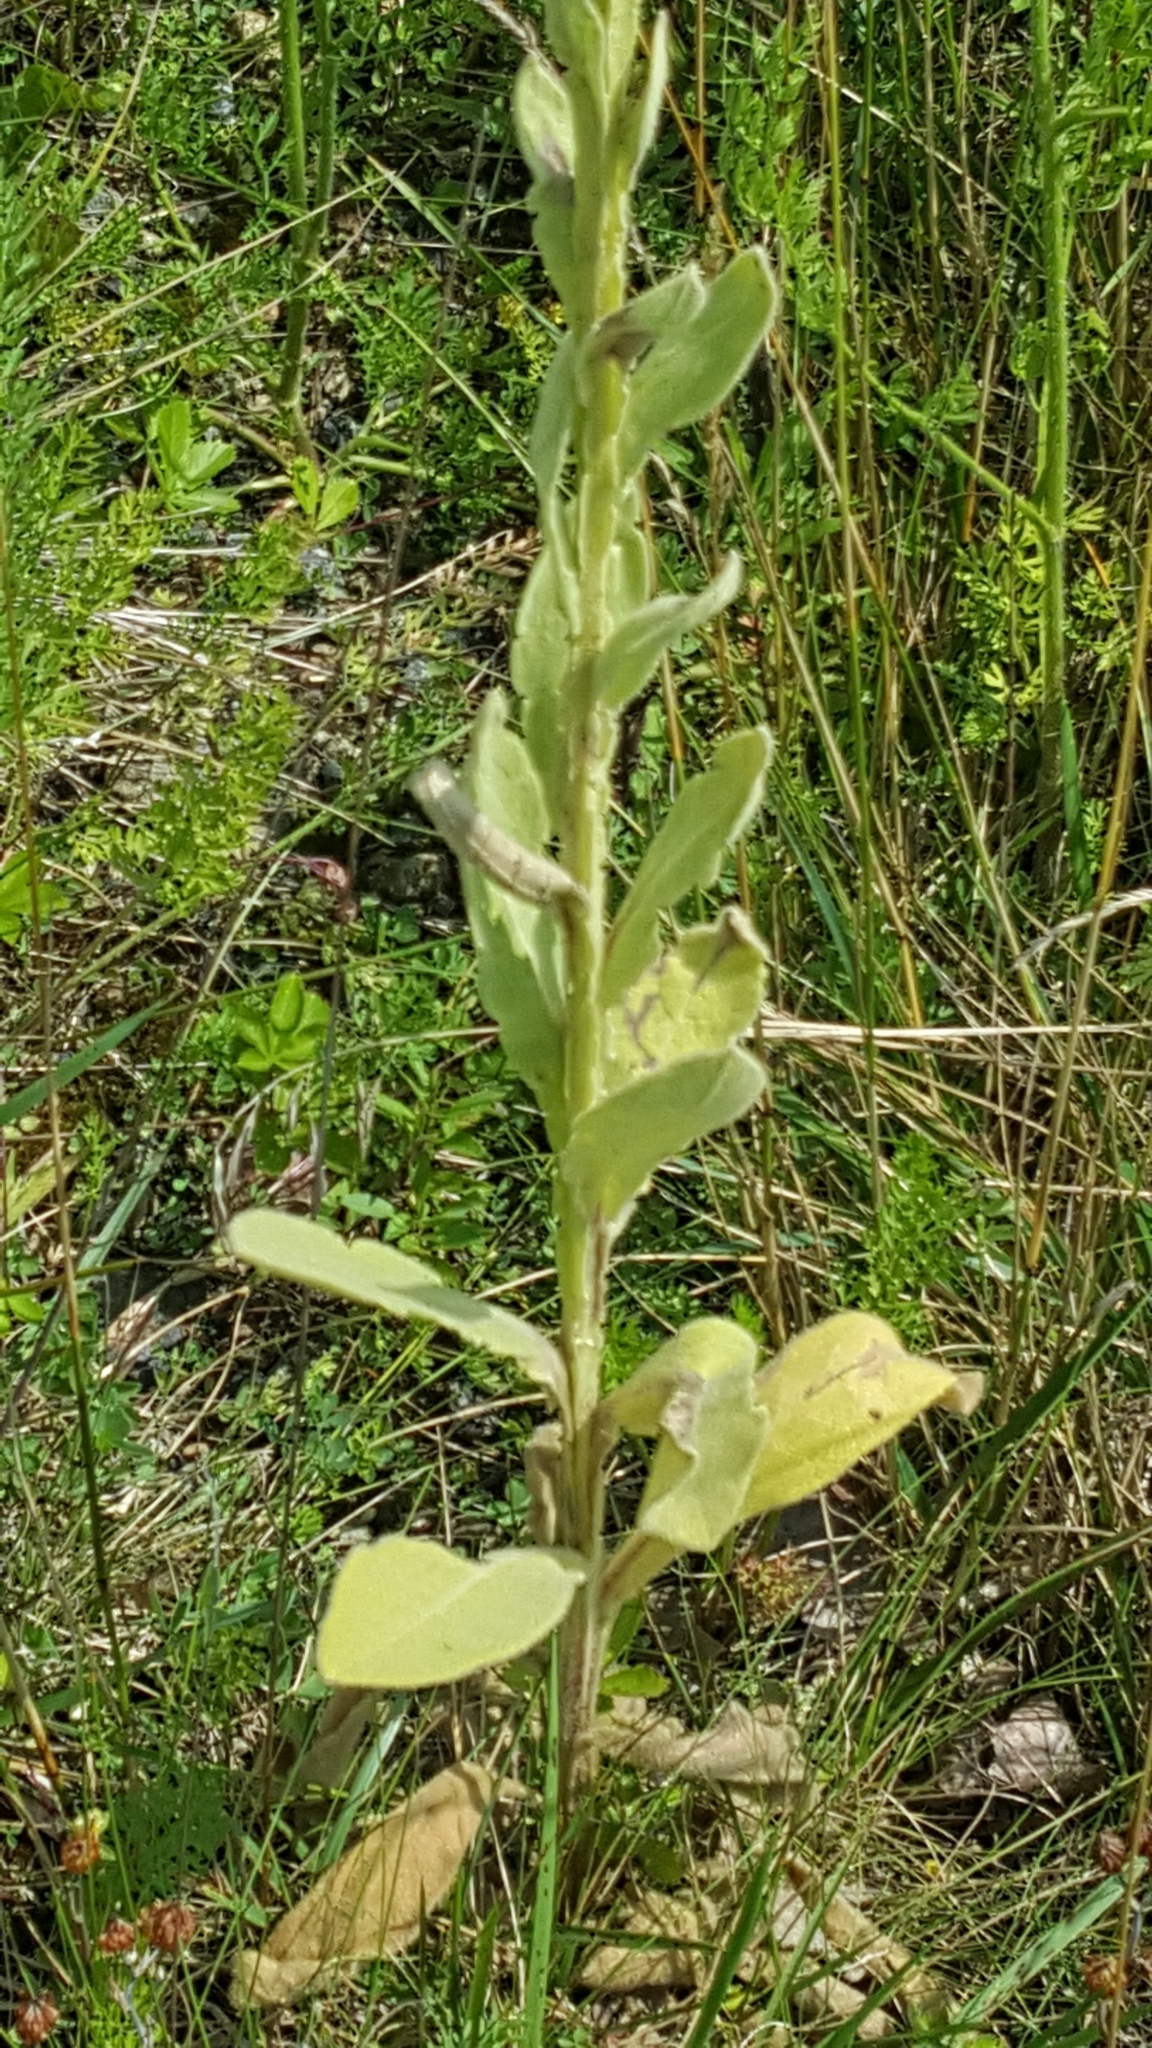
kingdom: Plantae
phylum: Tracheophyta
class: Magnoliopsida
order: Lamiales
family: Scrophulariaceae
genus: Verbascum
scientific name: Verbascum thapsus
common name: Common mullein
